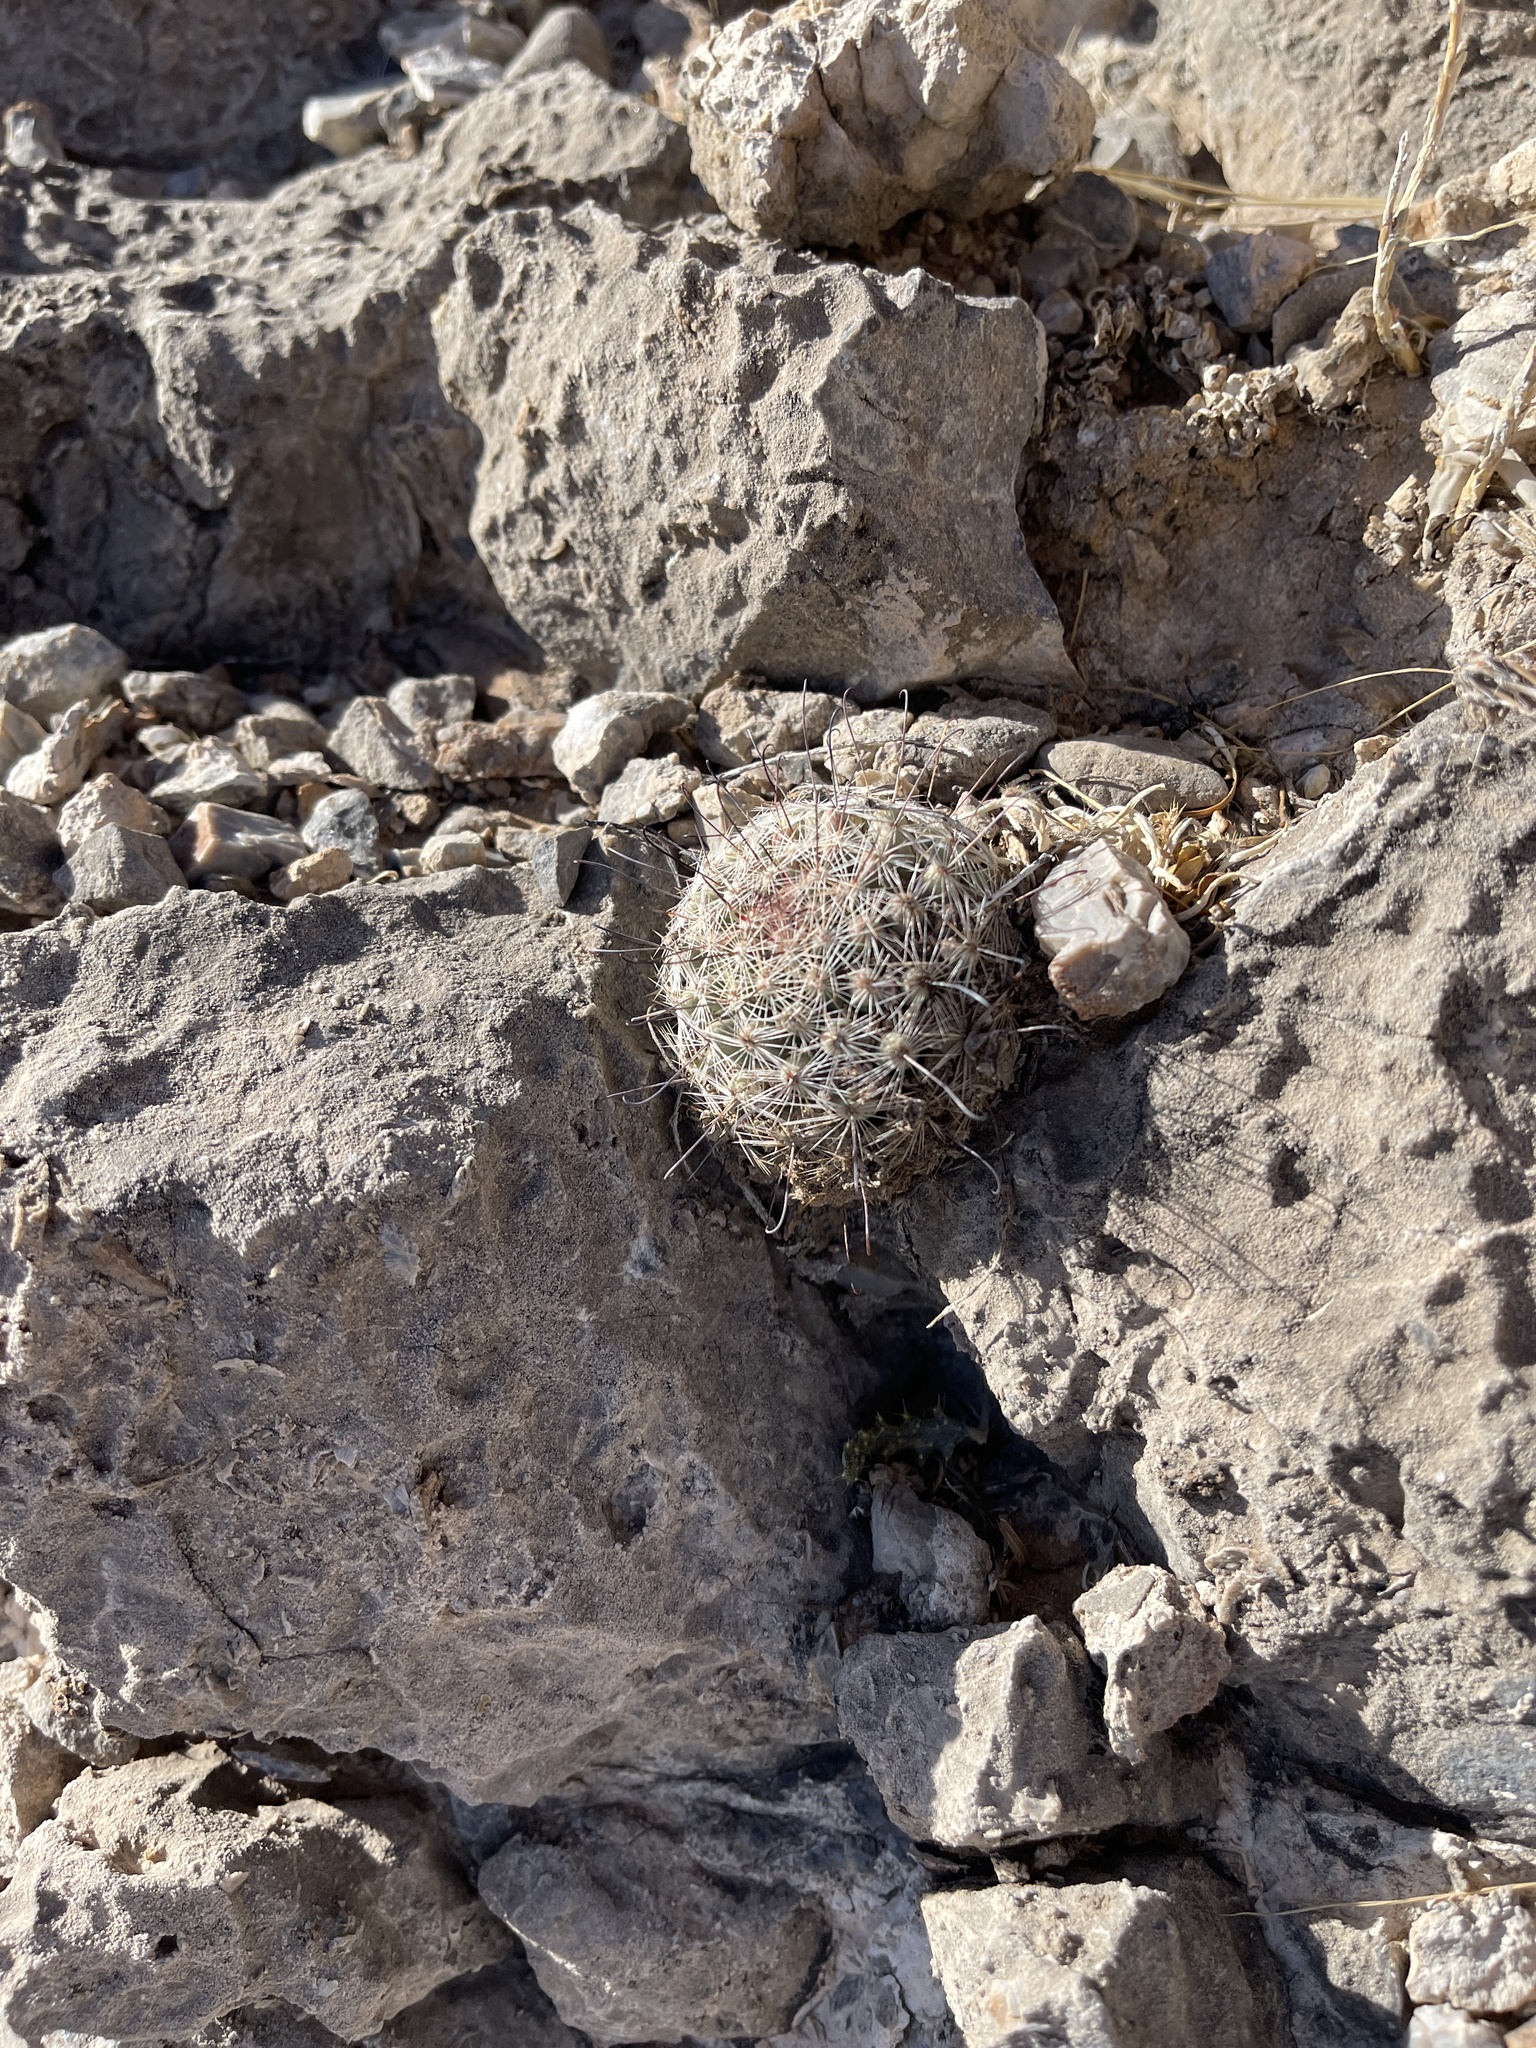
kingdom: Plantae
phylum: Tracheophyta
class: Magnoliopsida
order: Caryophyllales
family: Cactaceae
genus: Cochemiea
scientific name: Cochemiea grahamii
